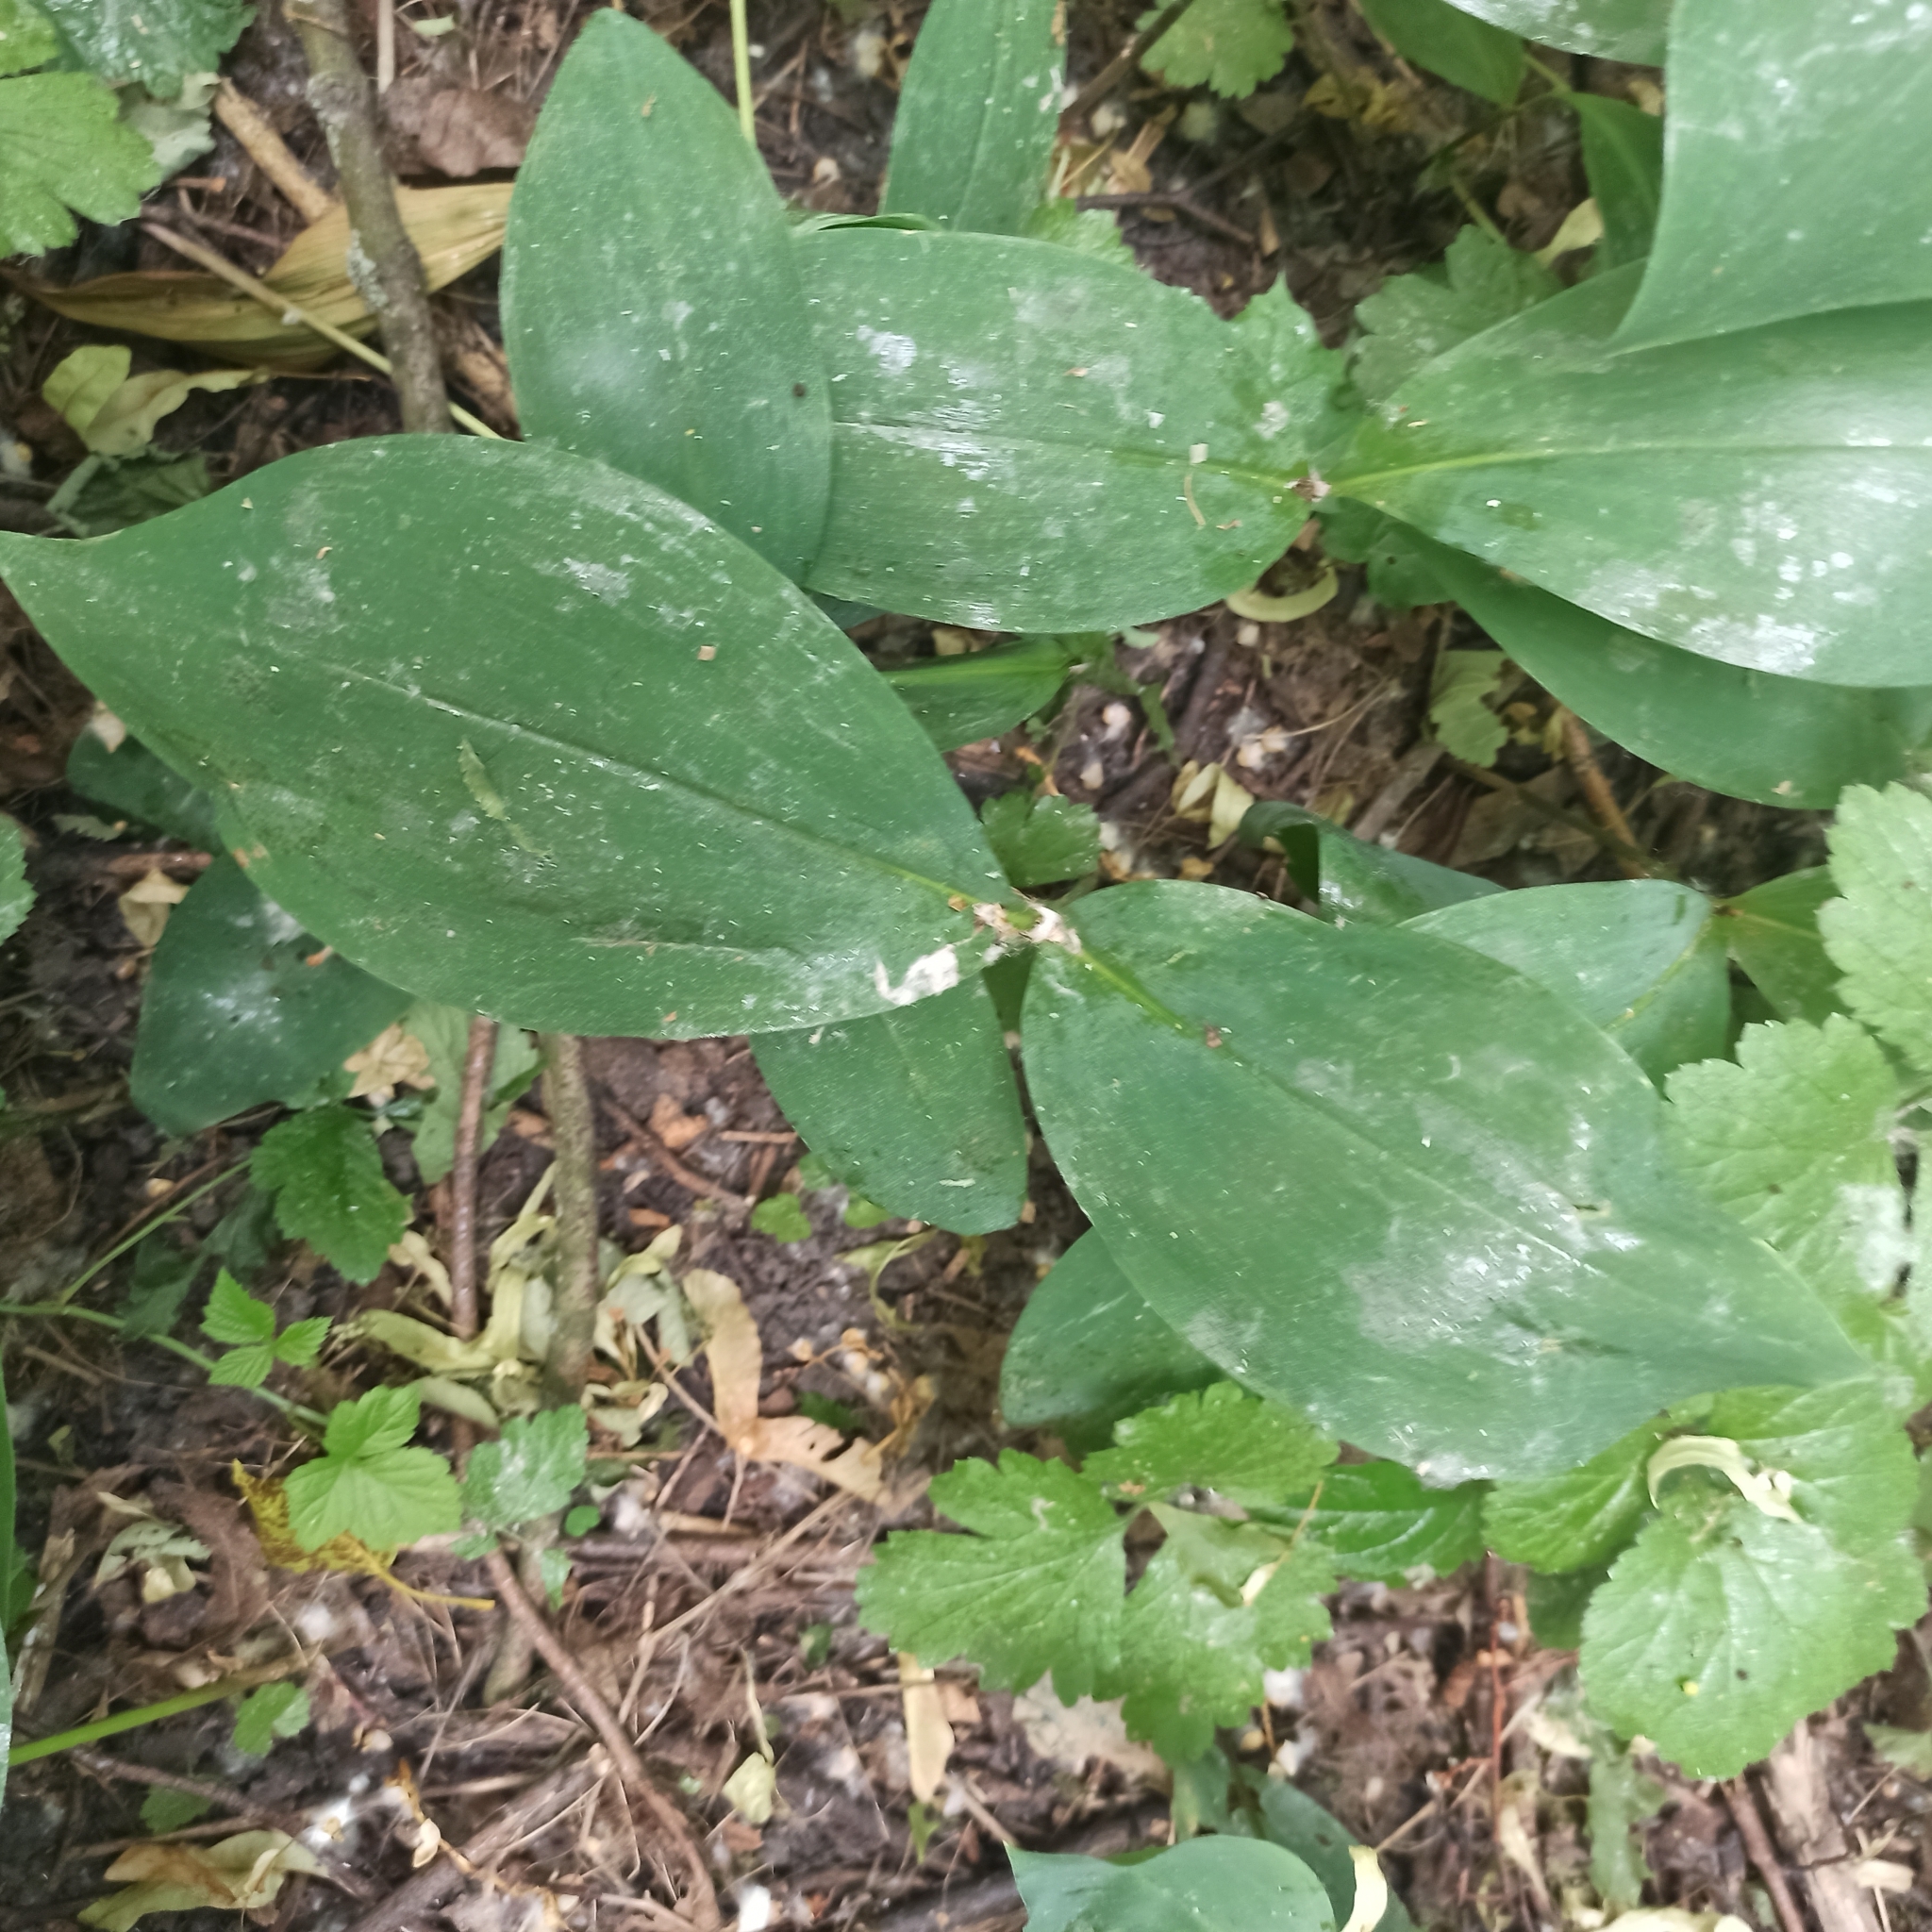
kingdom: Plantae
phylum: Tracheophyta
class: Liliopsida
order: Asparagales
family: Asparagaceae
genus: Convallaria
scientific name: Convallaria majalis
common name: Lily-of-the-valley
